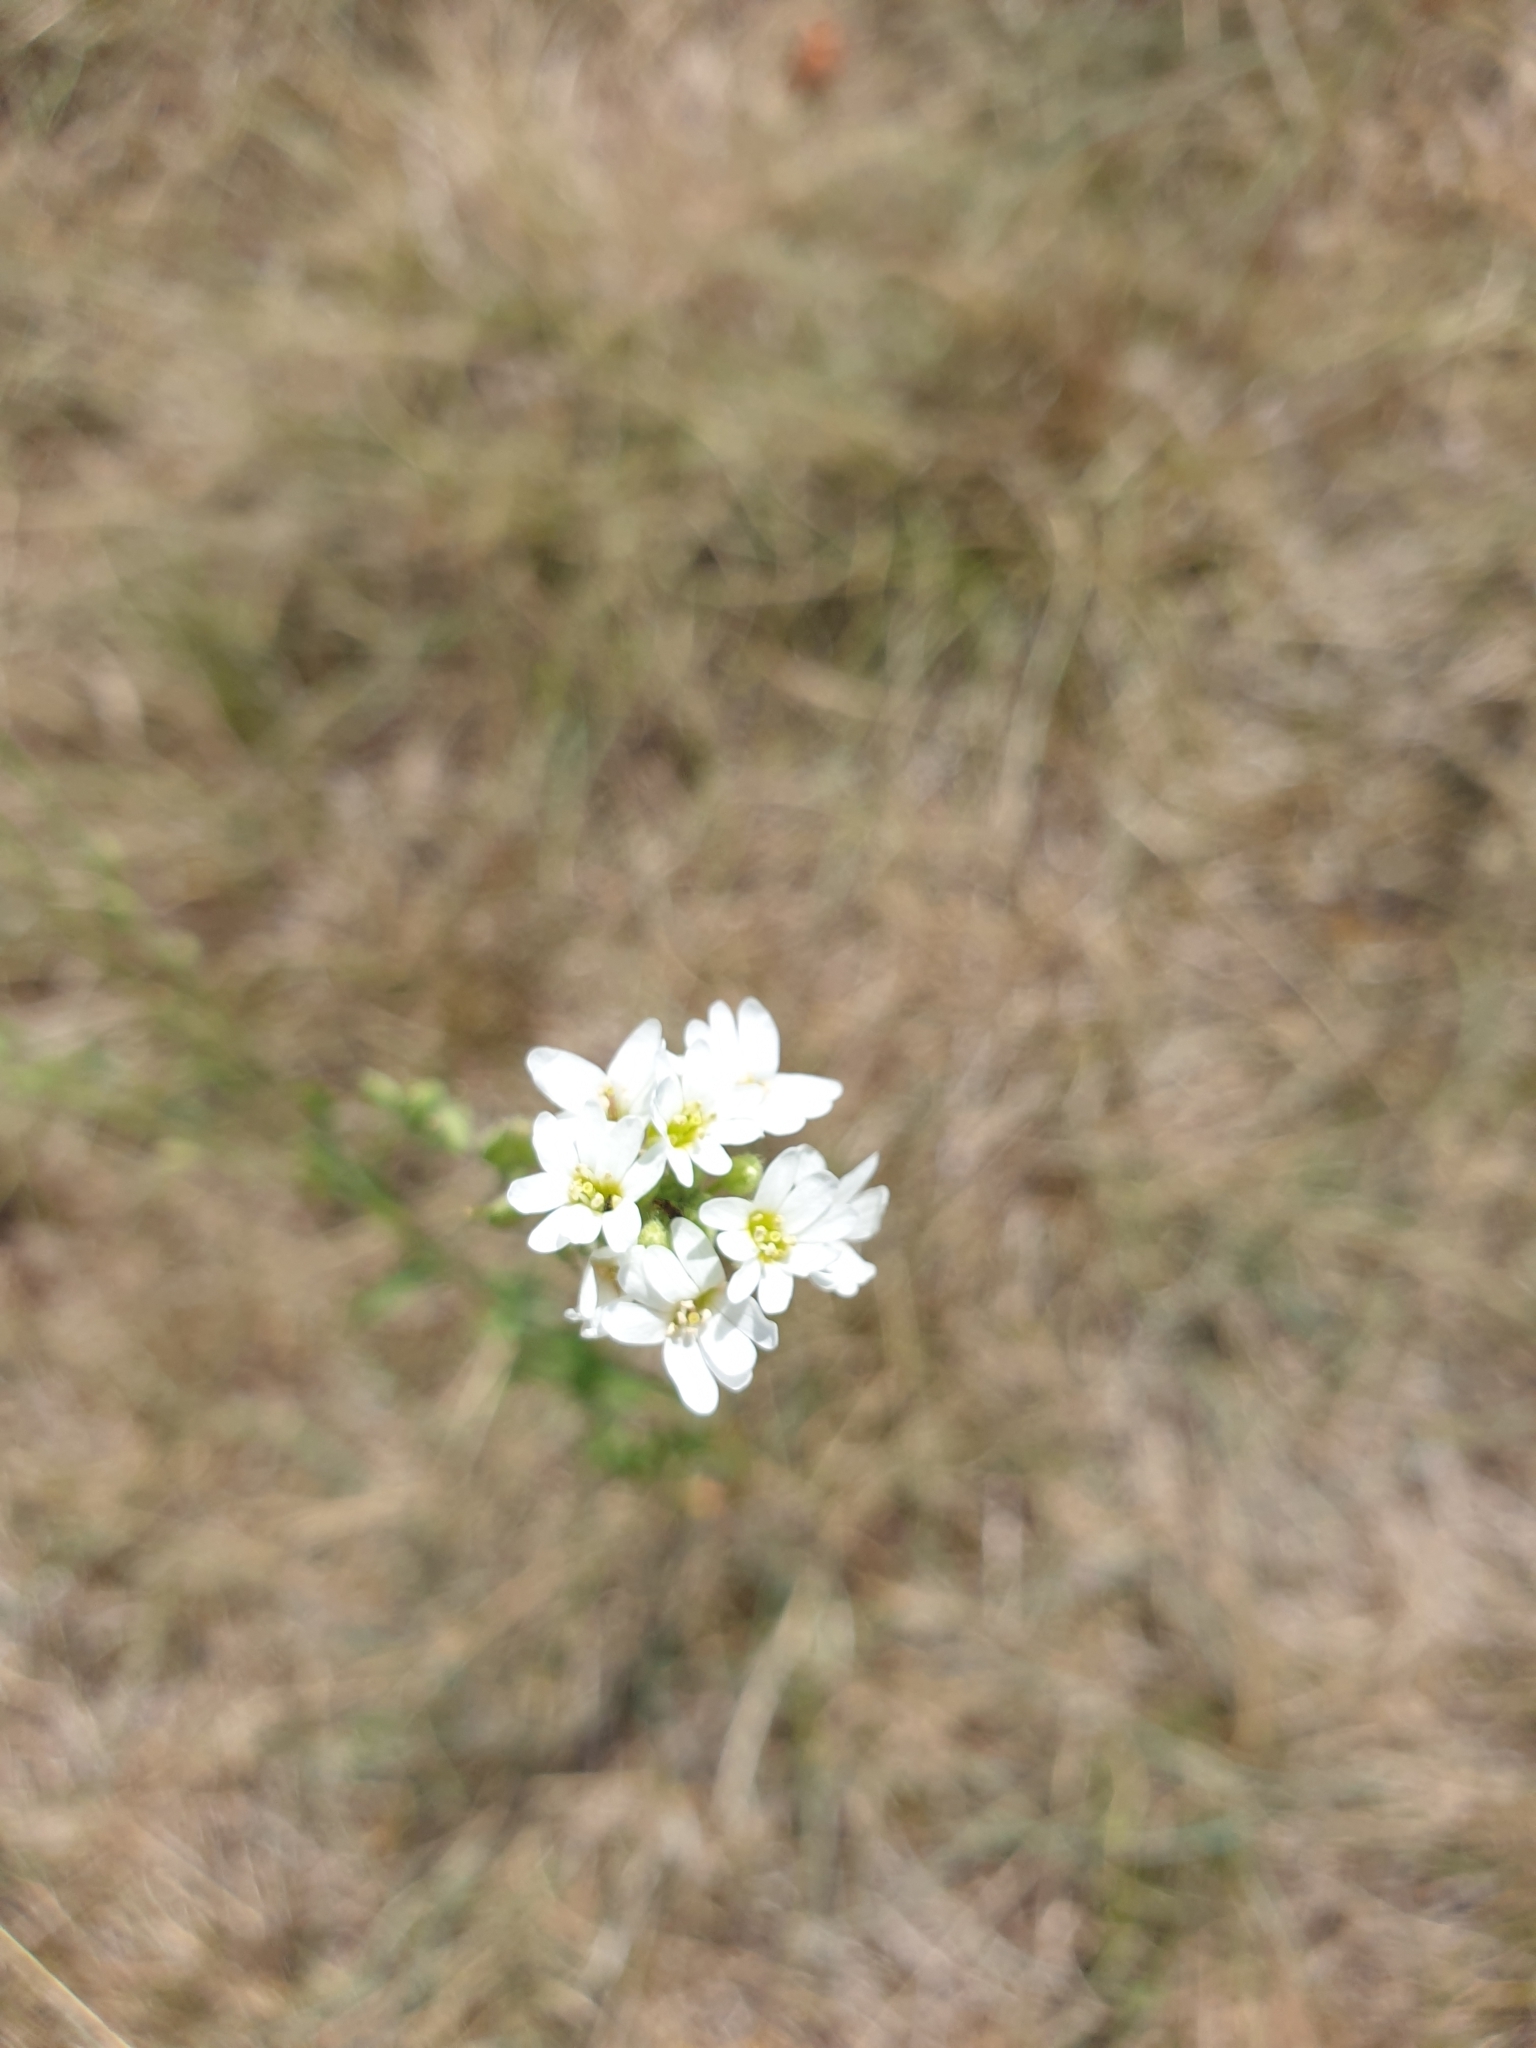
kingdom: Plantae
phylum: Tracheophyta
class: Magnoliopsida
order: Brassicales
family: Brassicaceae
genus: Berteroa
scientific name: Berteroa incana
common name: Hoary alison
